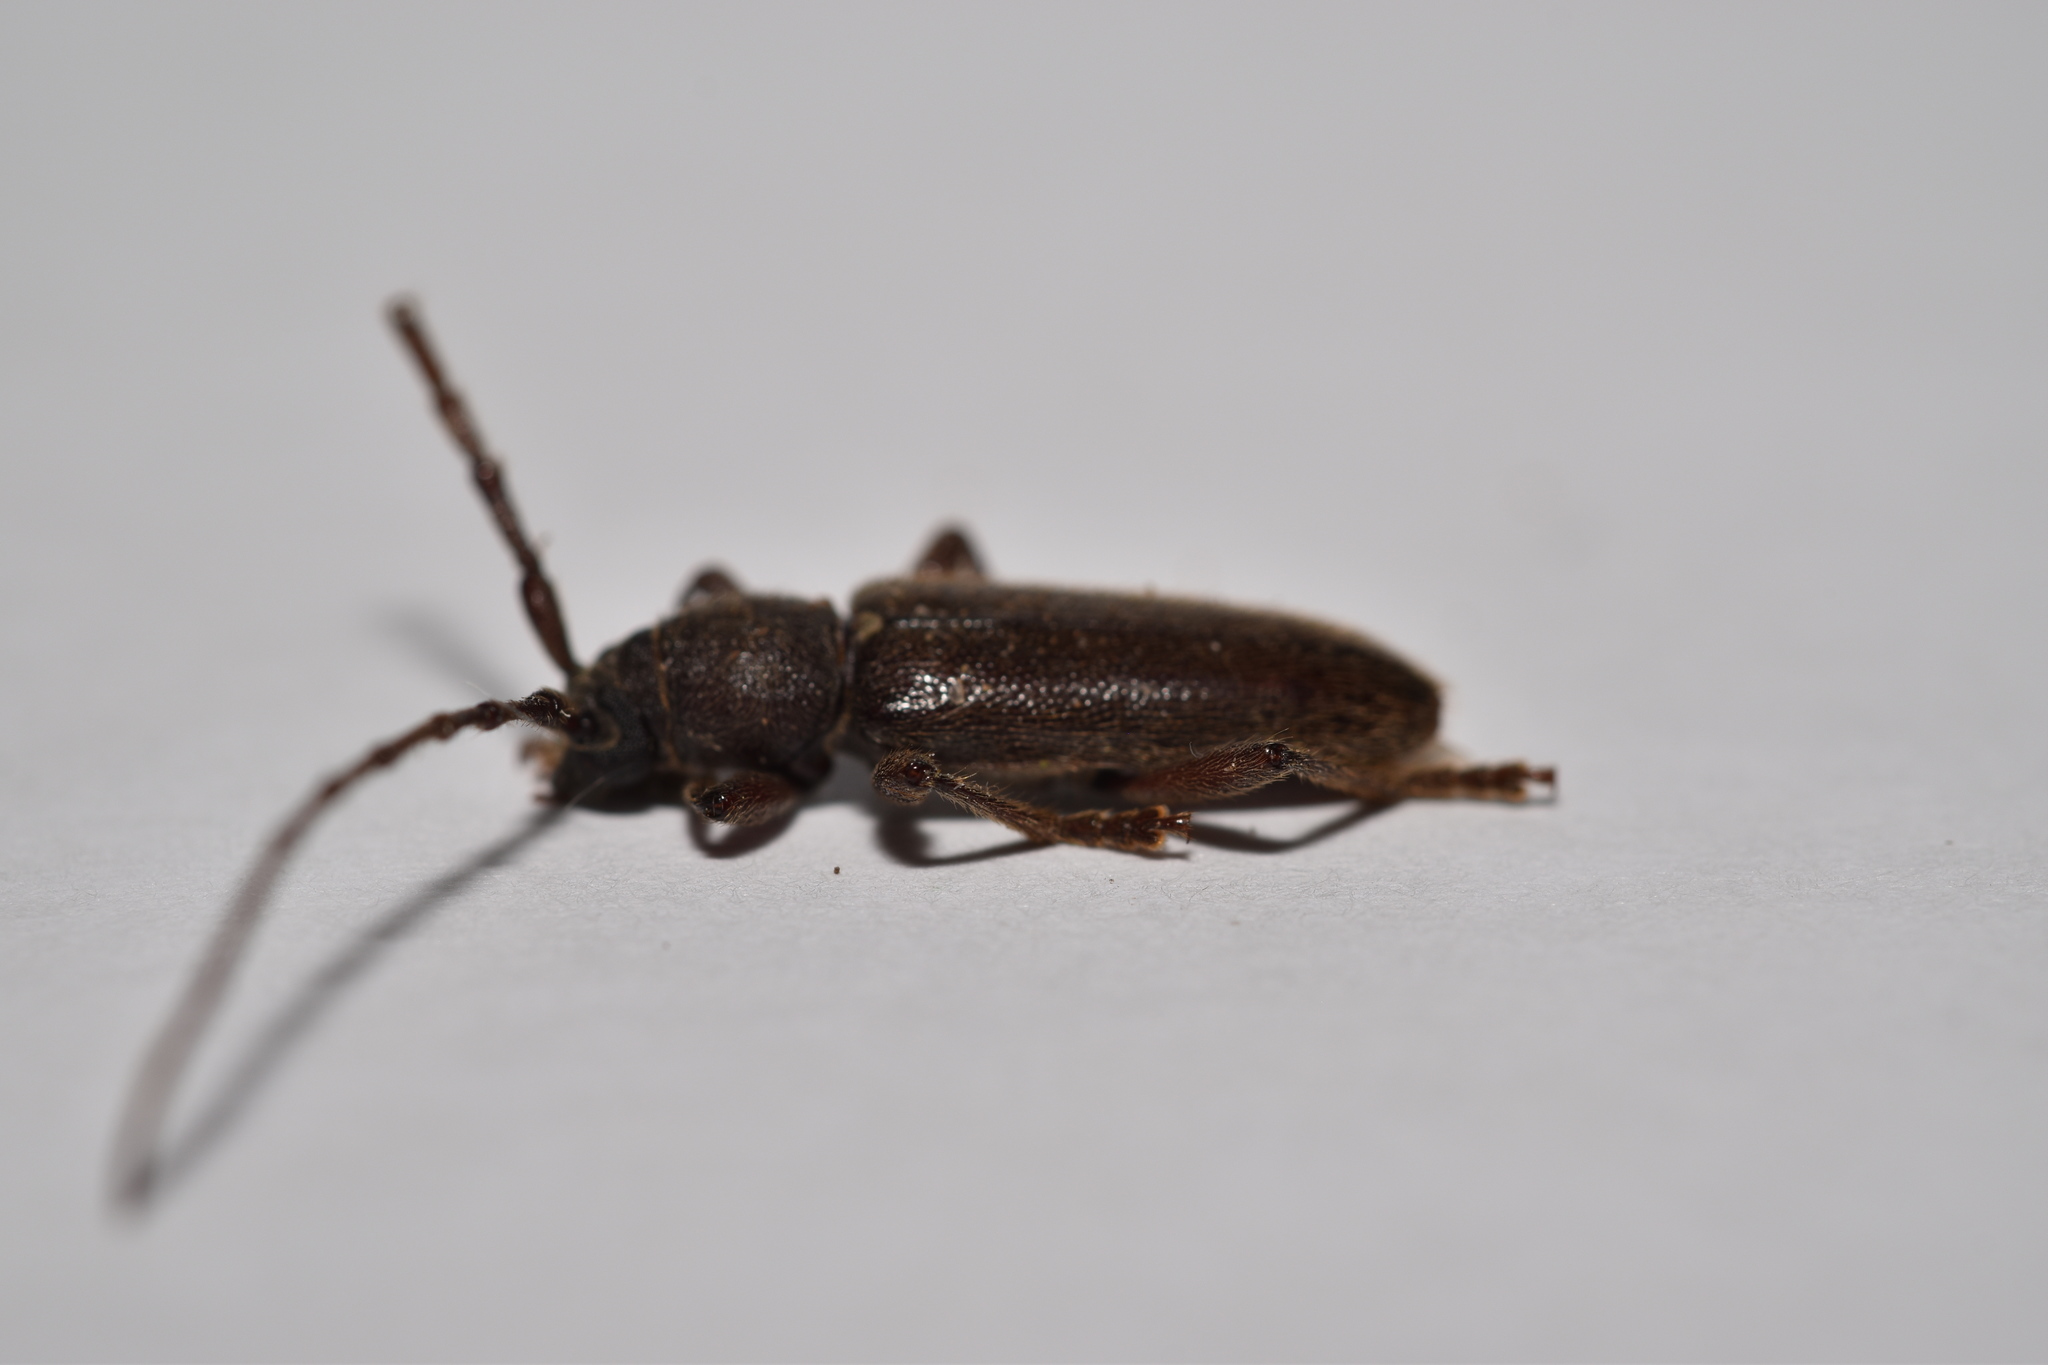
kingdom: Animalia
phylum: Arthropoda
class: Insecta
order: Coleoptera
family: Cerambycidae
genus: Anelaphus
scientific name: Anelaphus moestus
